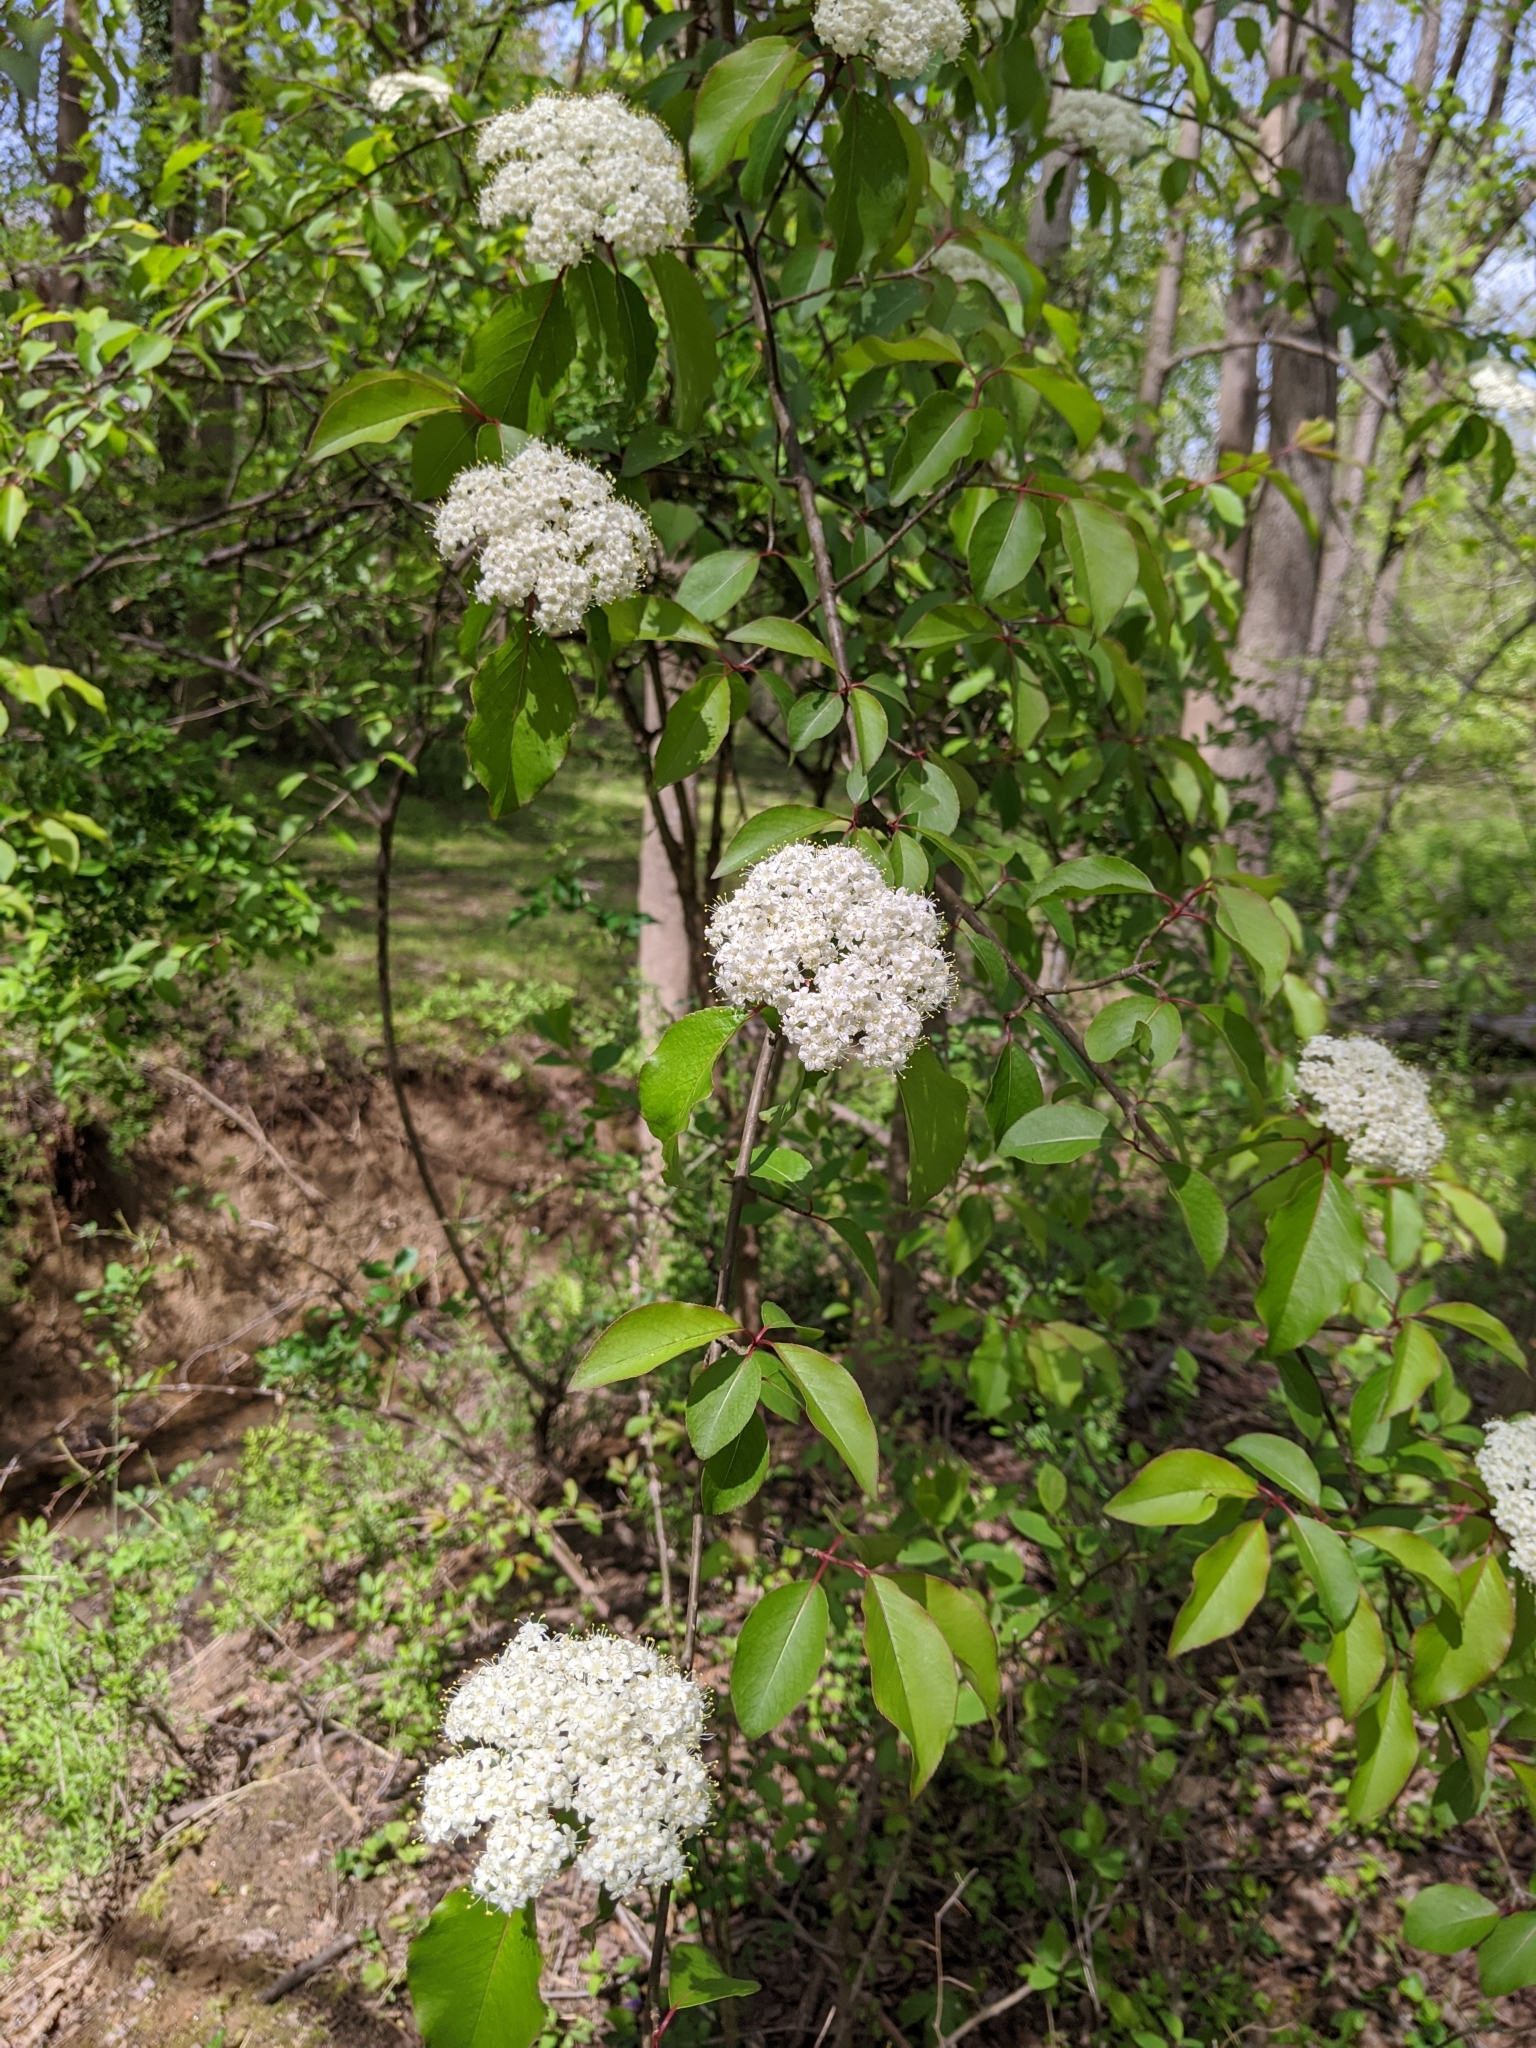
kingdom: Plantae
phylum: Tracheophyta
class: Magnoliopsida
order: Dipsacales
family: Viburnaceae
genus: Viburnum
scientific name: Viburnum prunifolium
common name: Black haw
